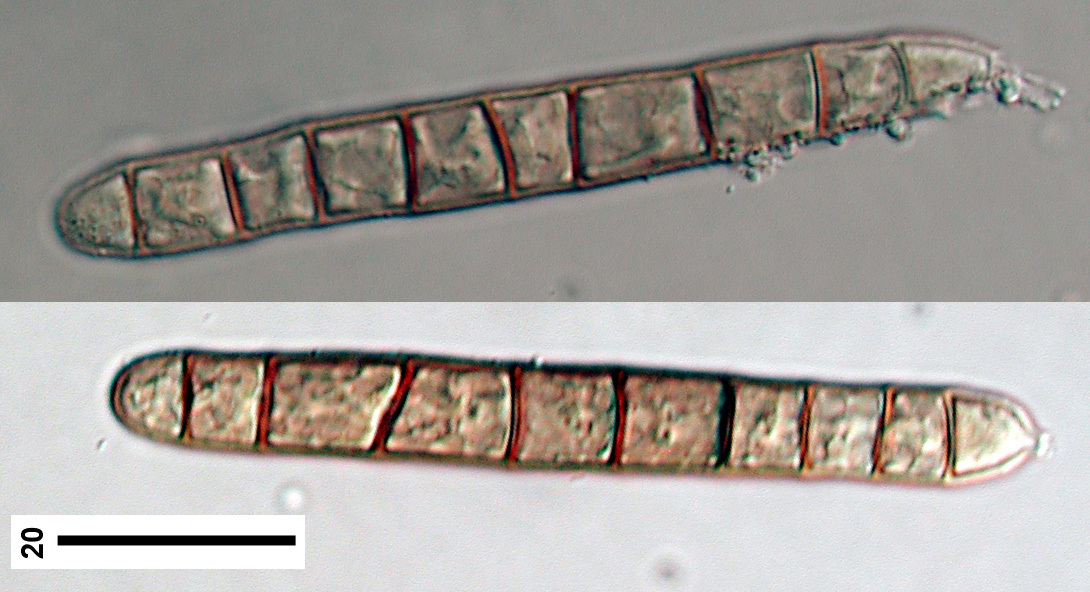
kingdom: Fungi
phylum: Ascomycota
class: Dothideomycetes
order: Pleosporales
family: Melanommataceae
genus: Camposporium
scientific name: Camposporium cambrense
